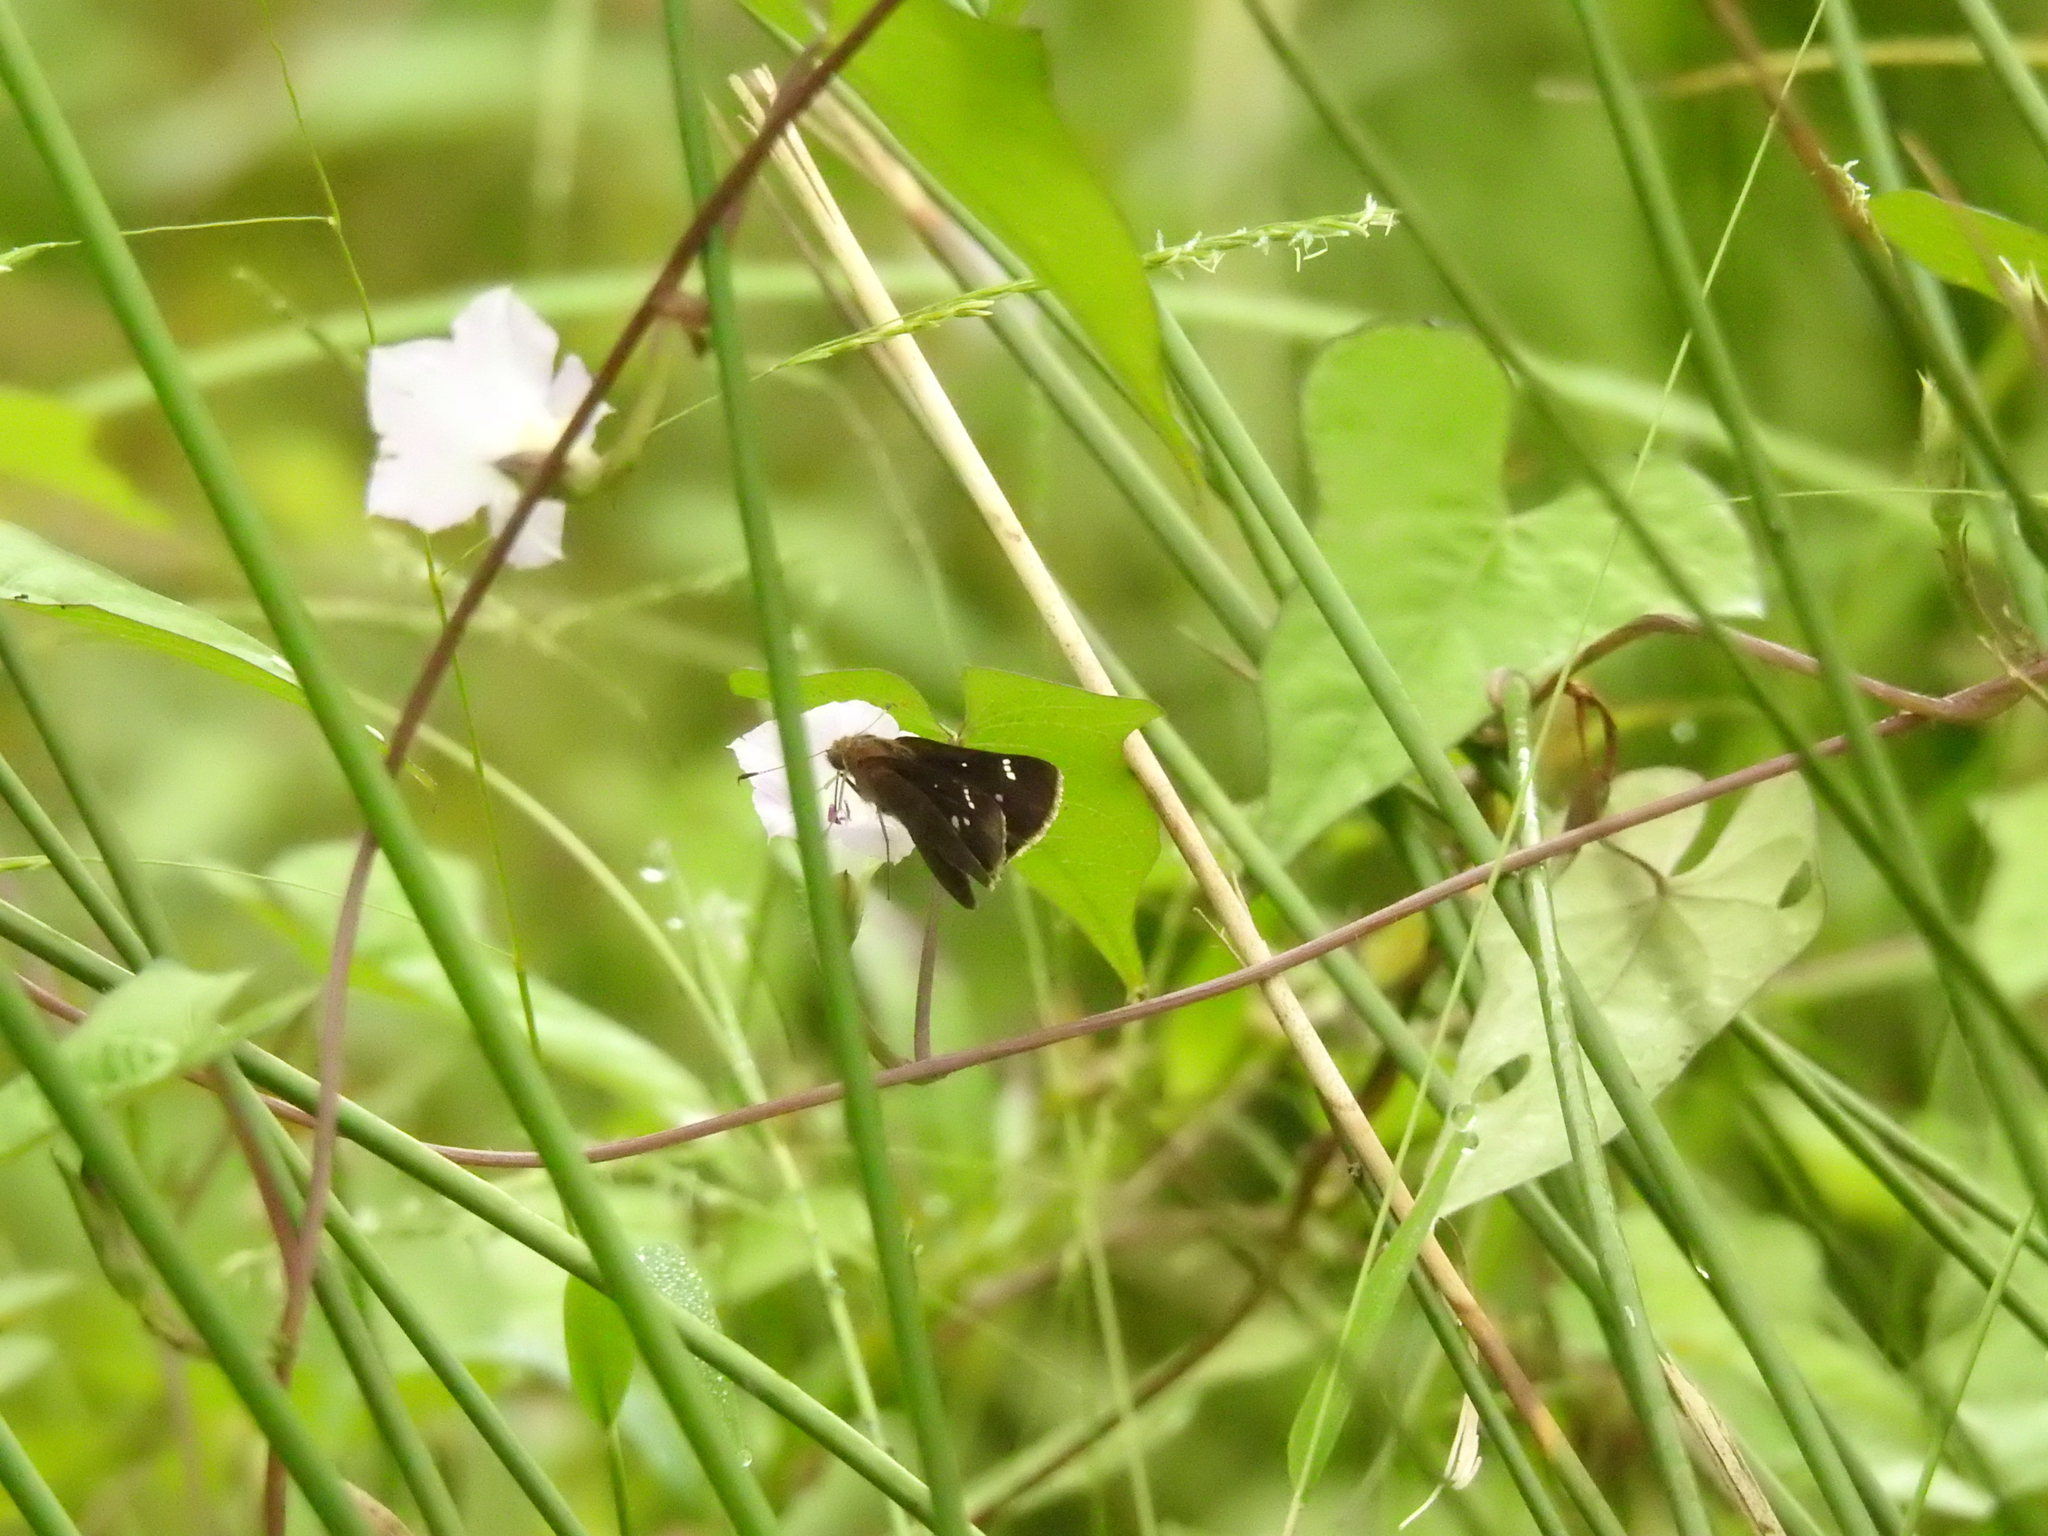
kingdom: Animalia
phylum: Arthropoda
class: Insecta
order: Lepidoptera
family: Hesperiidae
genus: Lerema
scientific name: Lerema accius
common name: Clouded skipper
